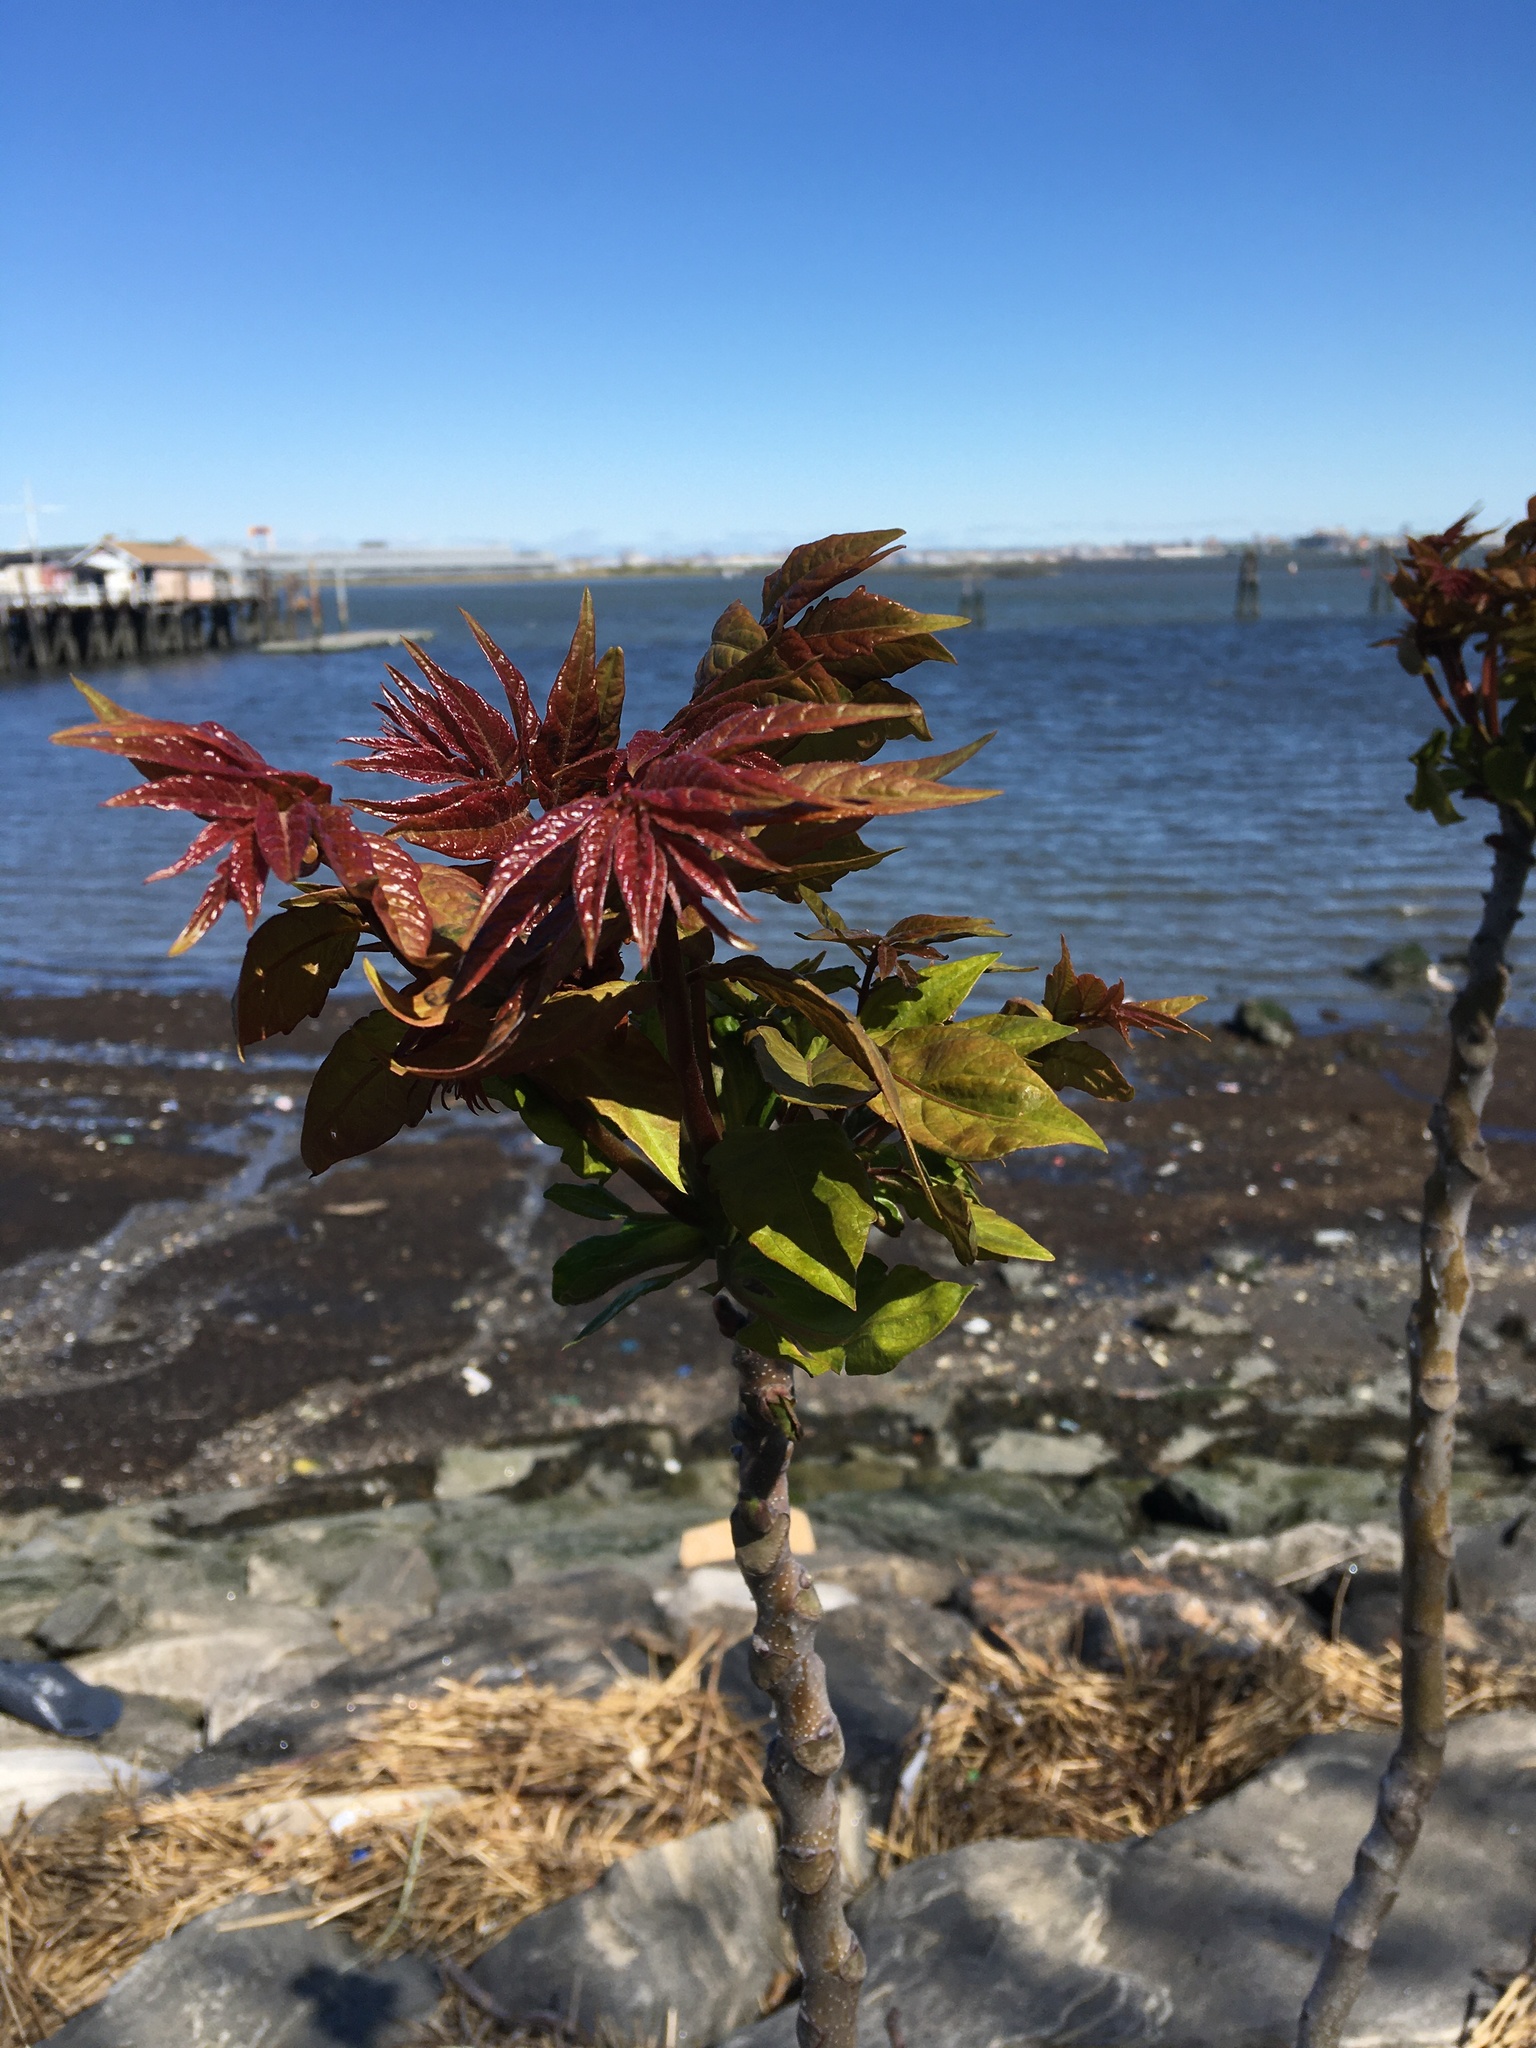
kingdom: Plantae
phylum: Tracheophyta
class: Magnoliopsida
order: Sapindales
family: Simaroubaceae
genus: Ailanthus
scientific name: Ailanthus altissima
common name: Tree-of-heaven
